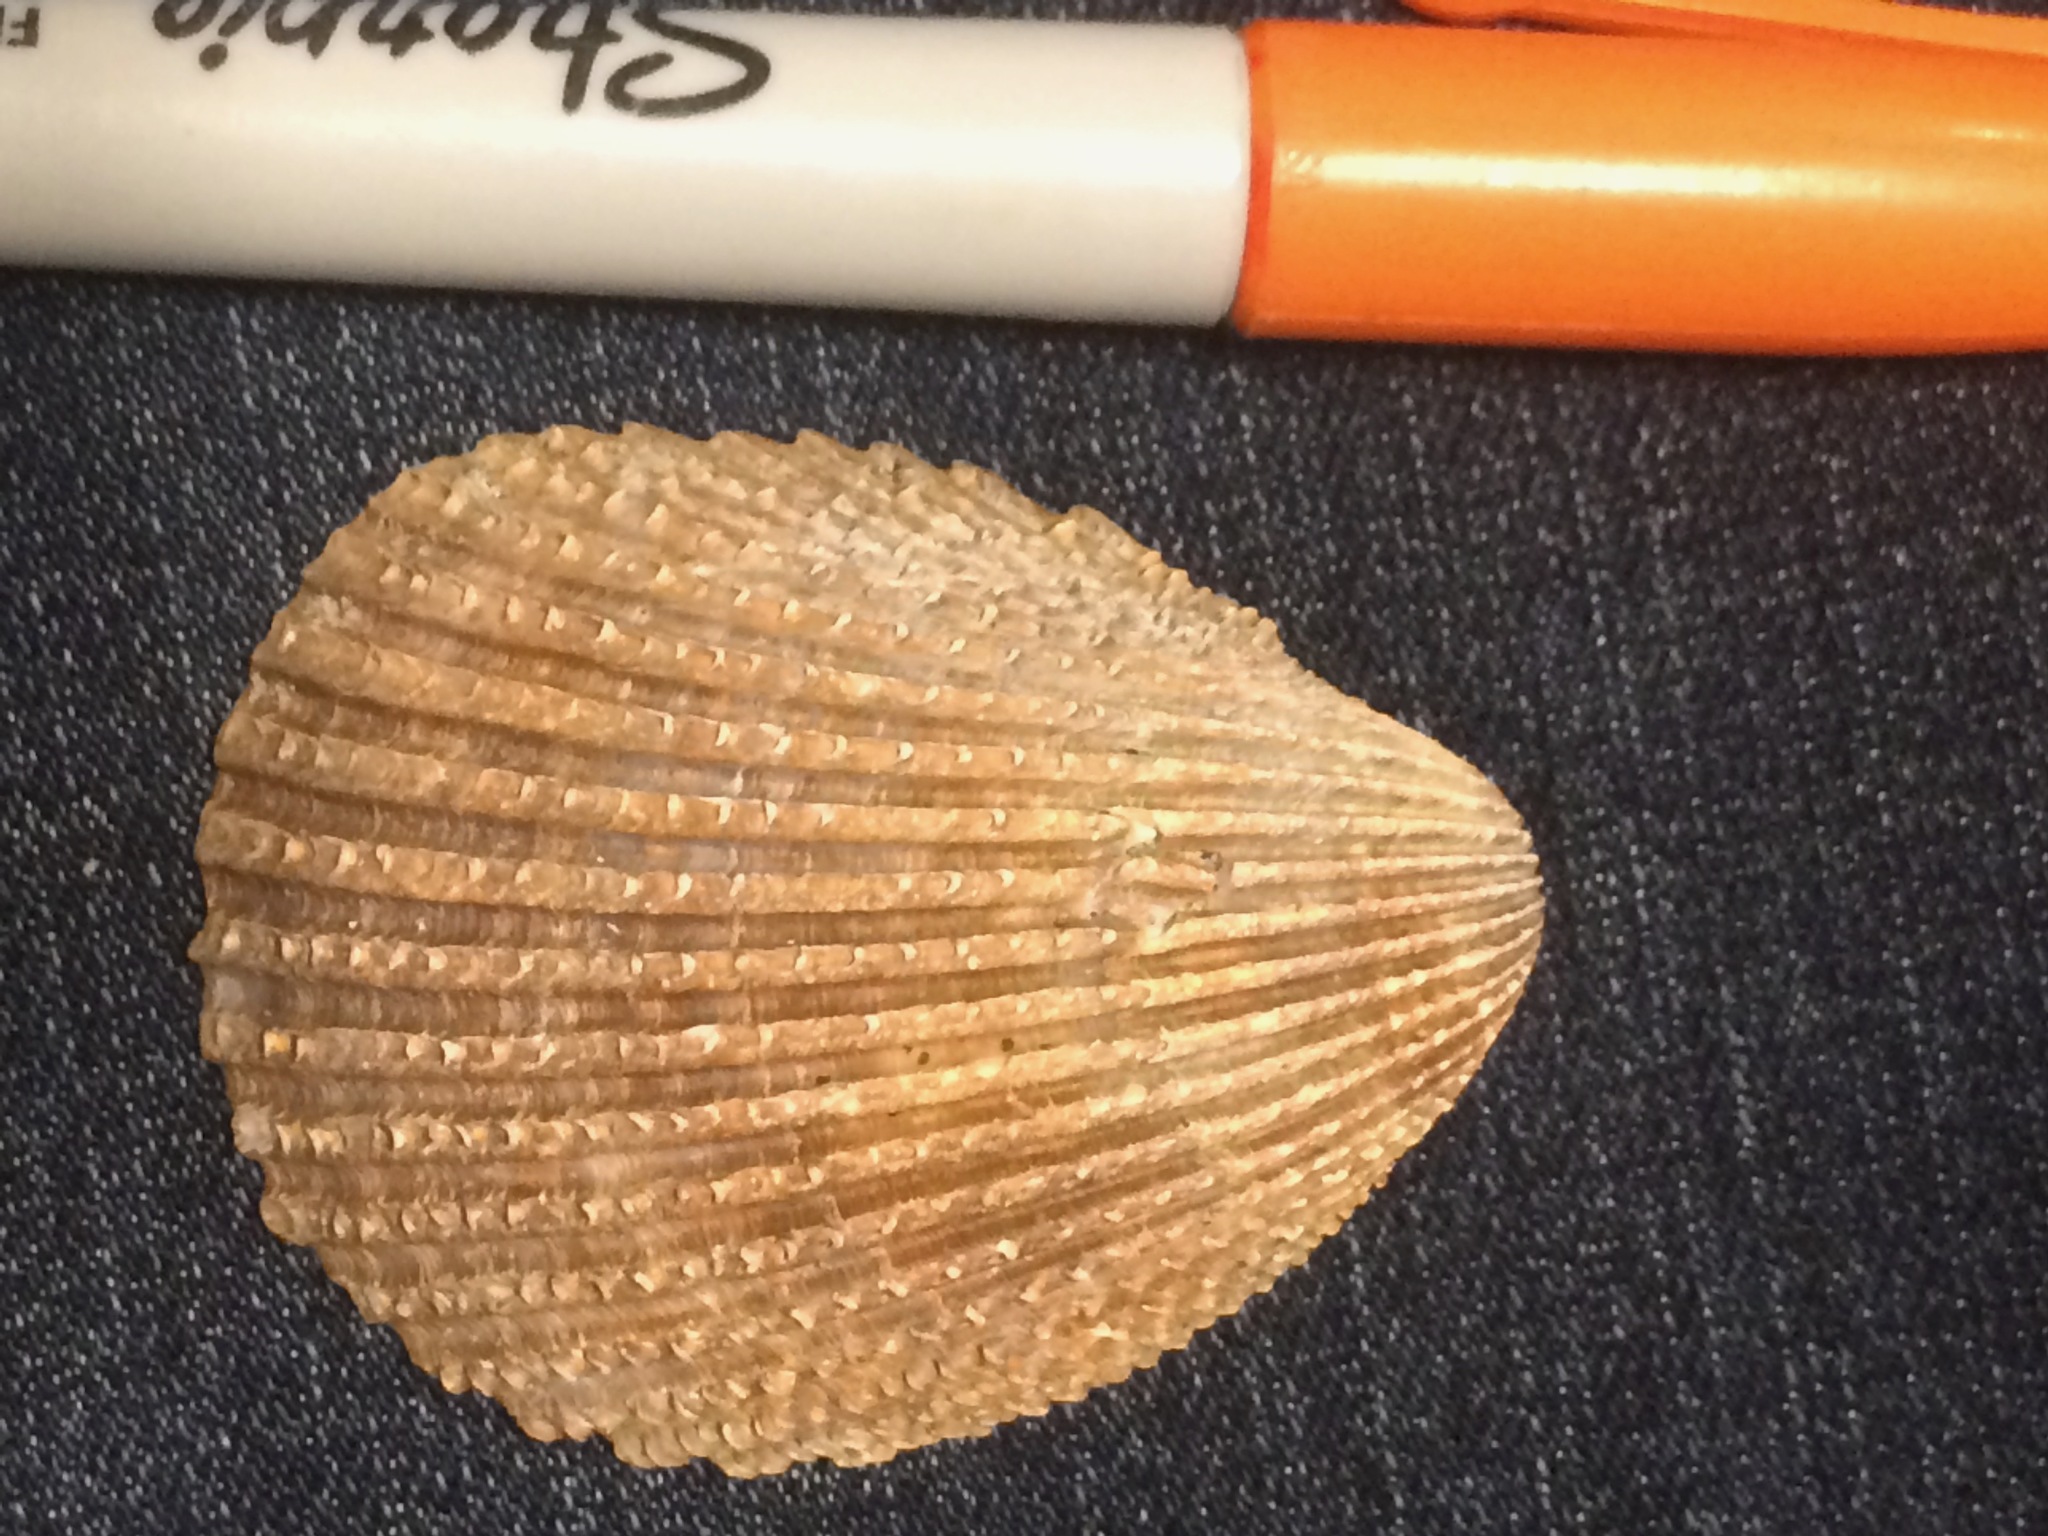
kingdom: Animalia
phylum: Mollusca
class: Bivalvia
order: Cardiida
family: Cardiidae
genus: Trachycardium
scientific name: Trachycardium egmontianum
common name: Florida pricklycockle
